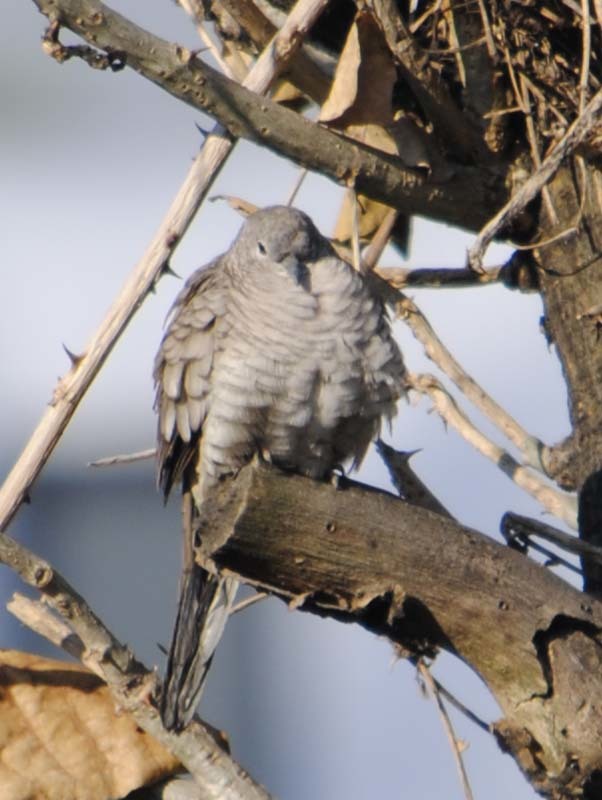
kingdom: Animalia
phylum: Chordata
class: Aves
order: Columbiformes
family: Columbidae
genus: Columbina
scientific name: Columbina inca
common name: Inca dove
